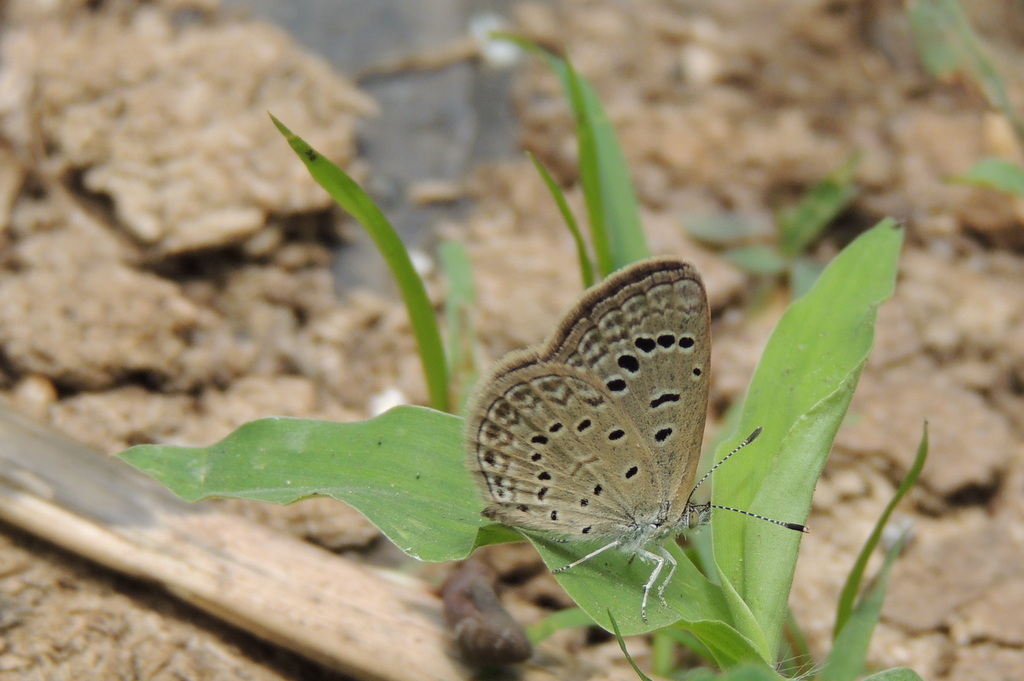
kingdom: Animalia
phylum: Arthropoda
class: Insecta
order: Lepidoptera
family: Lycaenidae
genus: Zizeeria
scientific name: Zizeeria karsandra
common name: Dark grass blue
